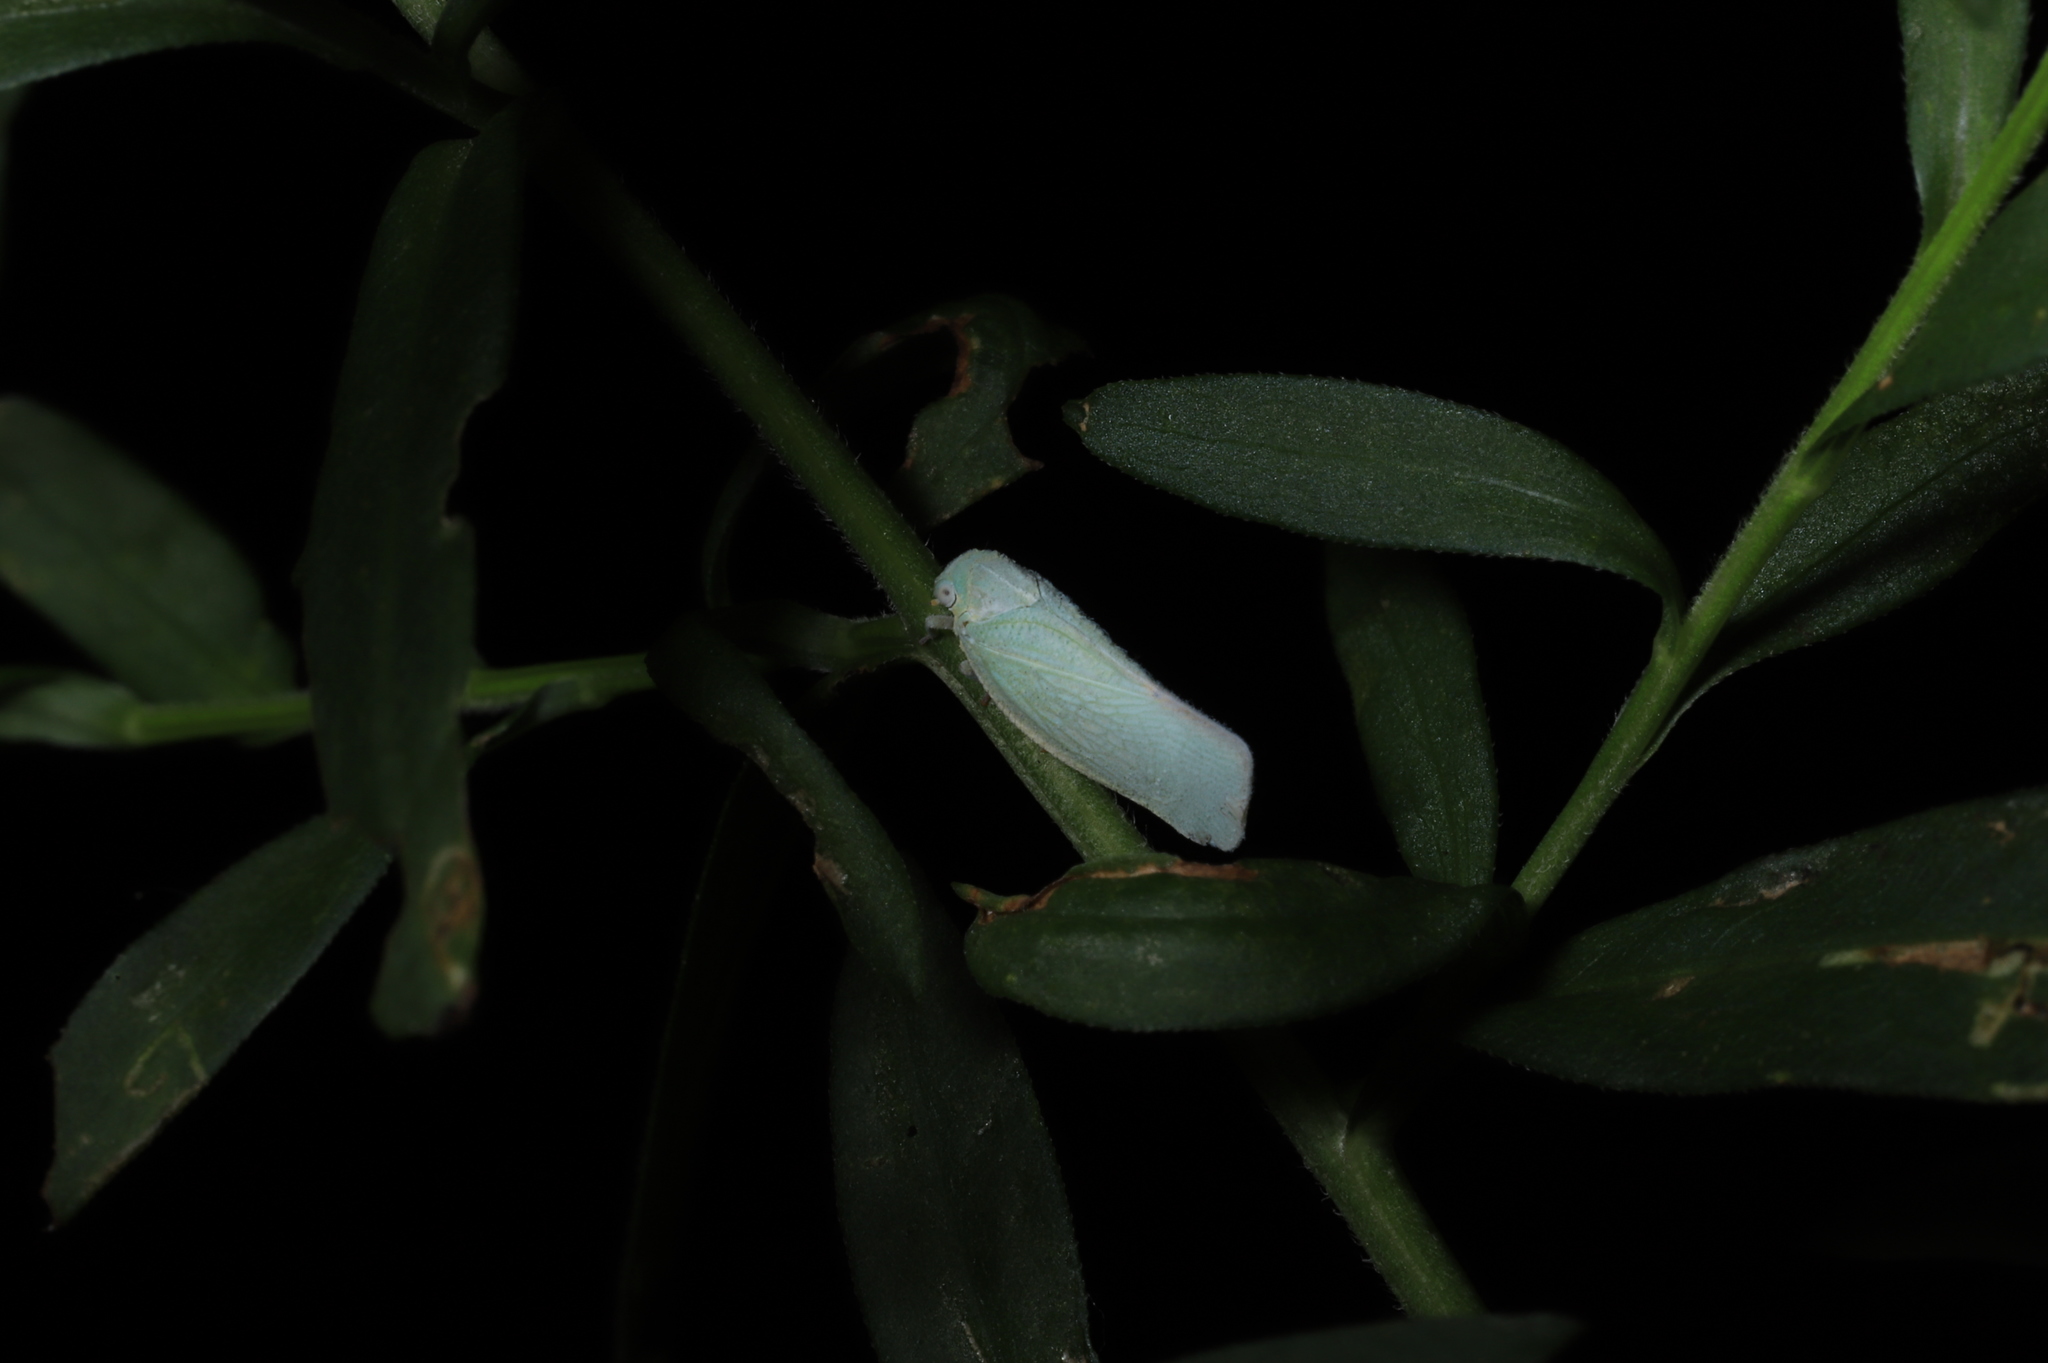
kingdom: Animalia
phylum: Arthropoda
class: Insecta
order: Hemiptera
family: Flatidae
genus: Flatormenis
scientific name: Flatormenis proxima
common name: Northern flatid planthopper
